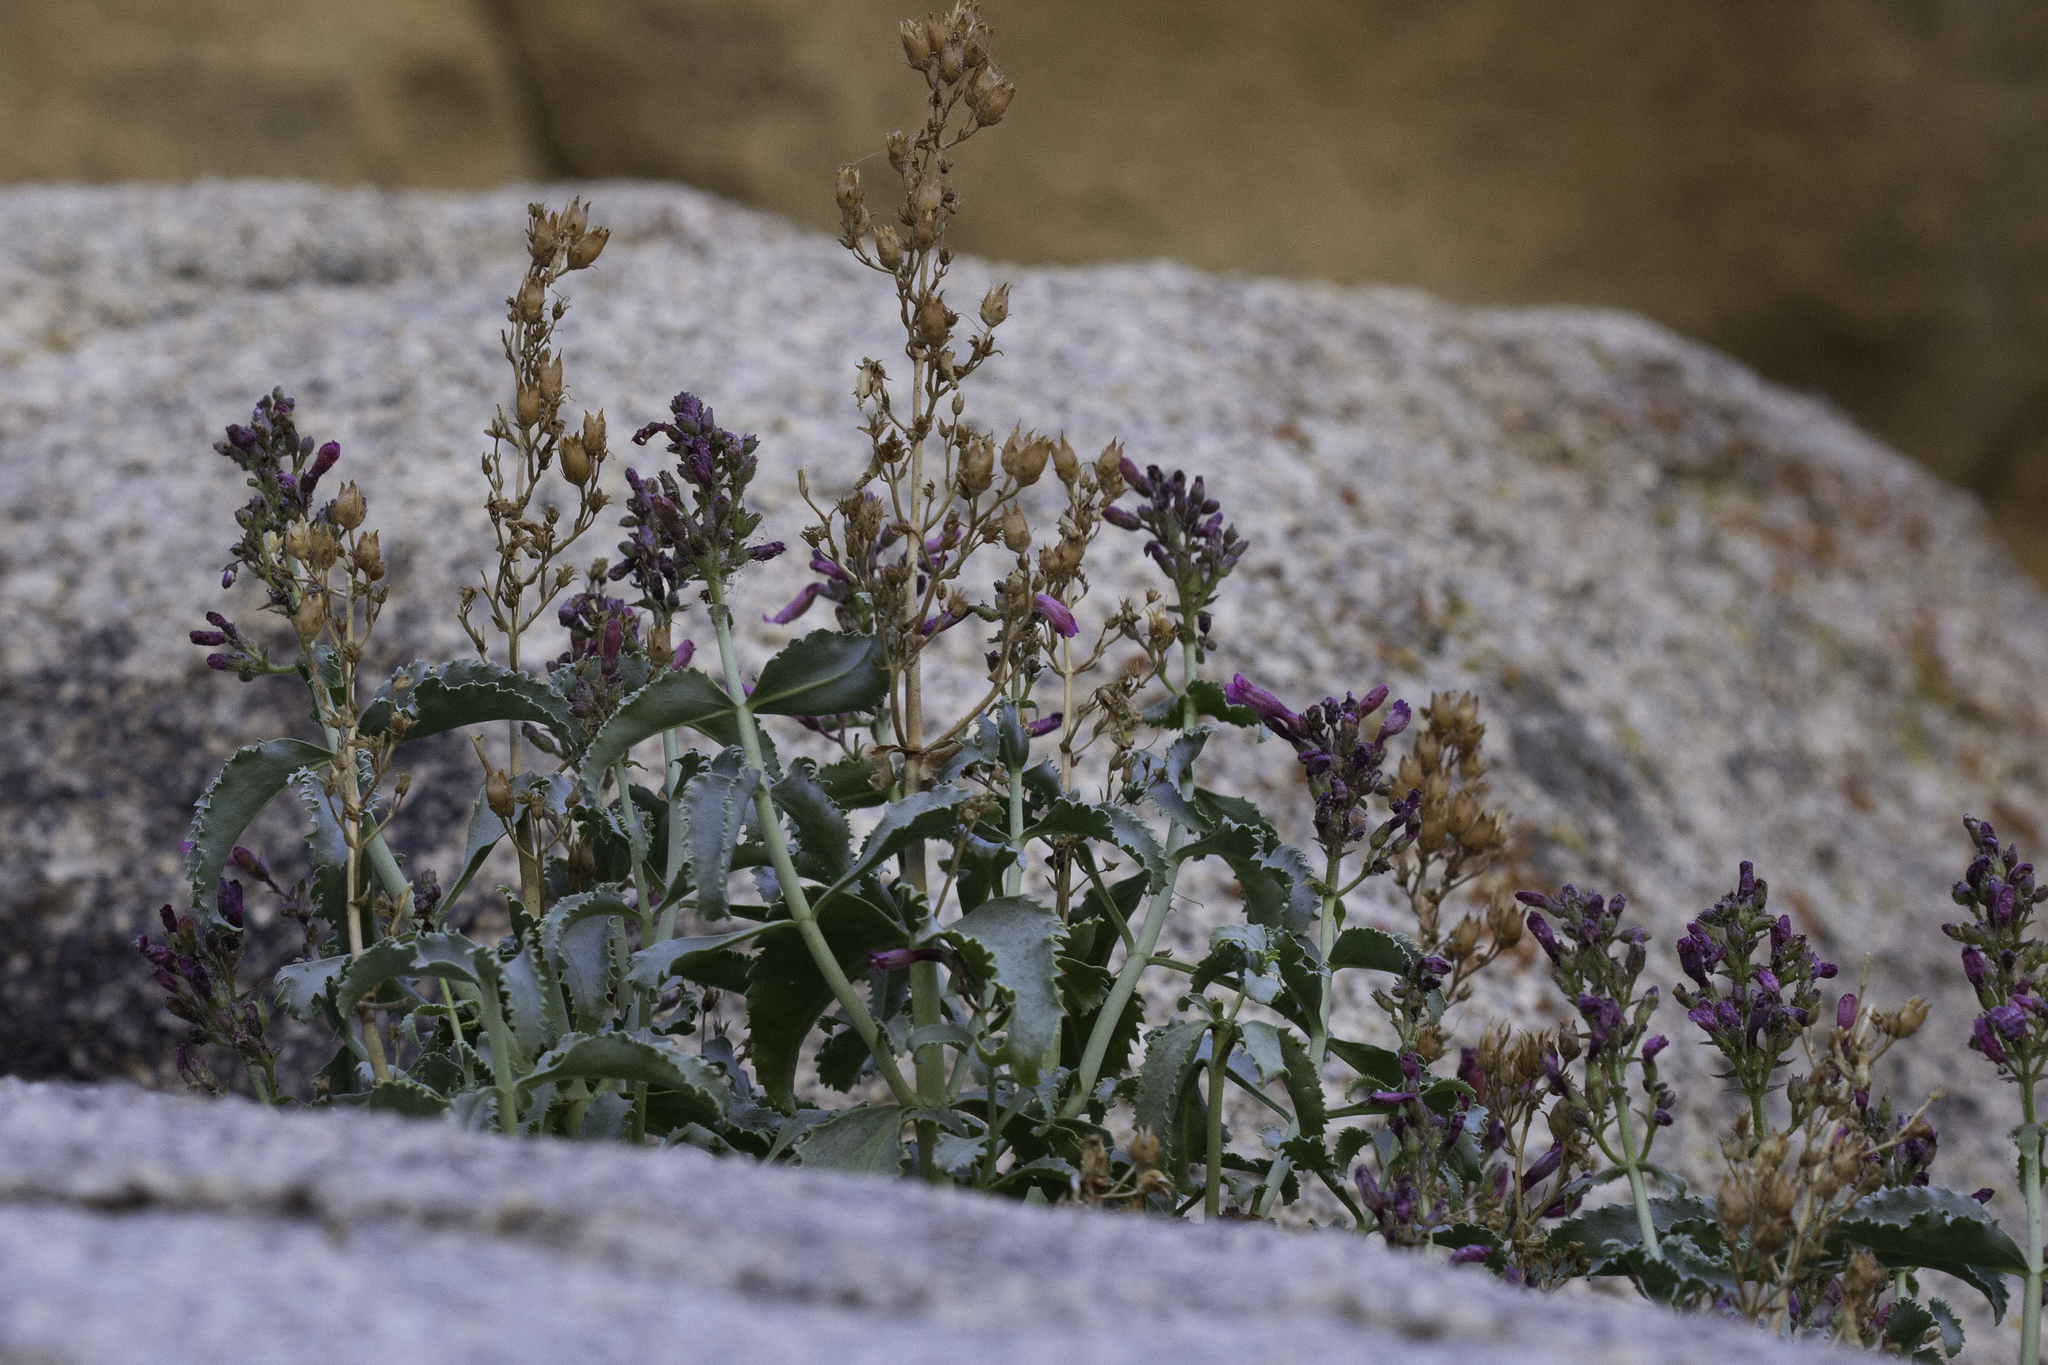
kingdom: Plantae
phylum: Tracheophyta
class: Magnoliopsida
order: Lamiales
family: Plantaginaceae
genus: Penstemon
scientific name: Penstemon clevelandii
